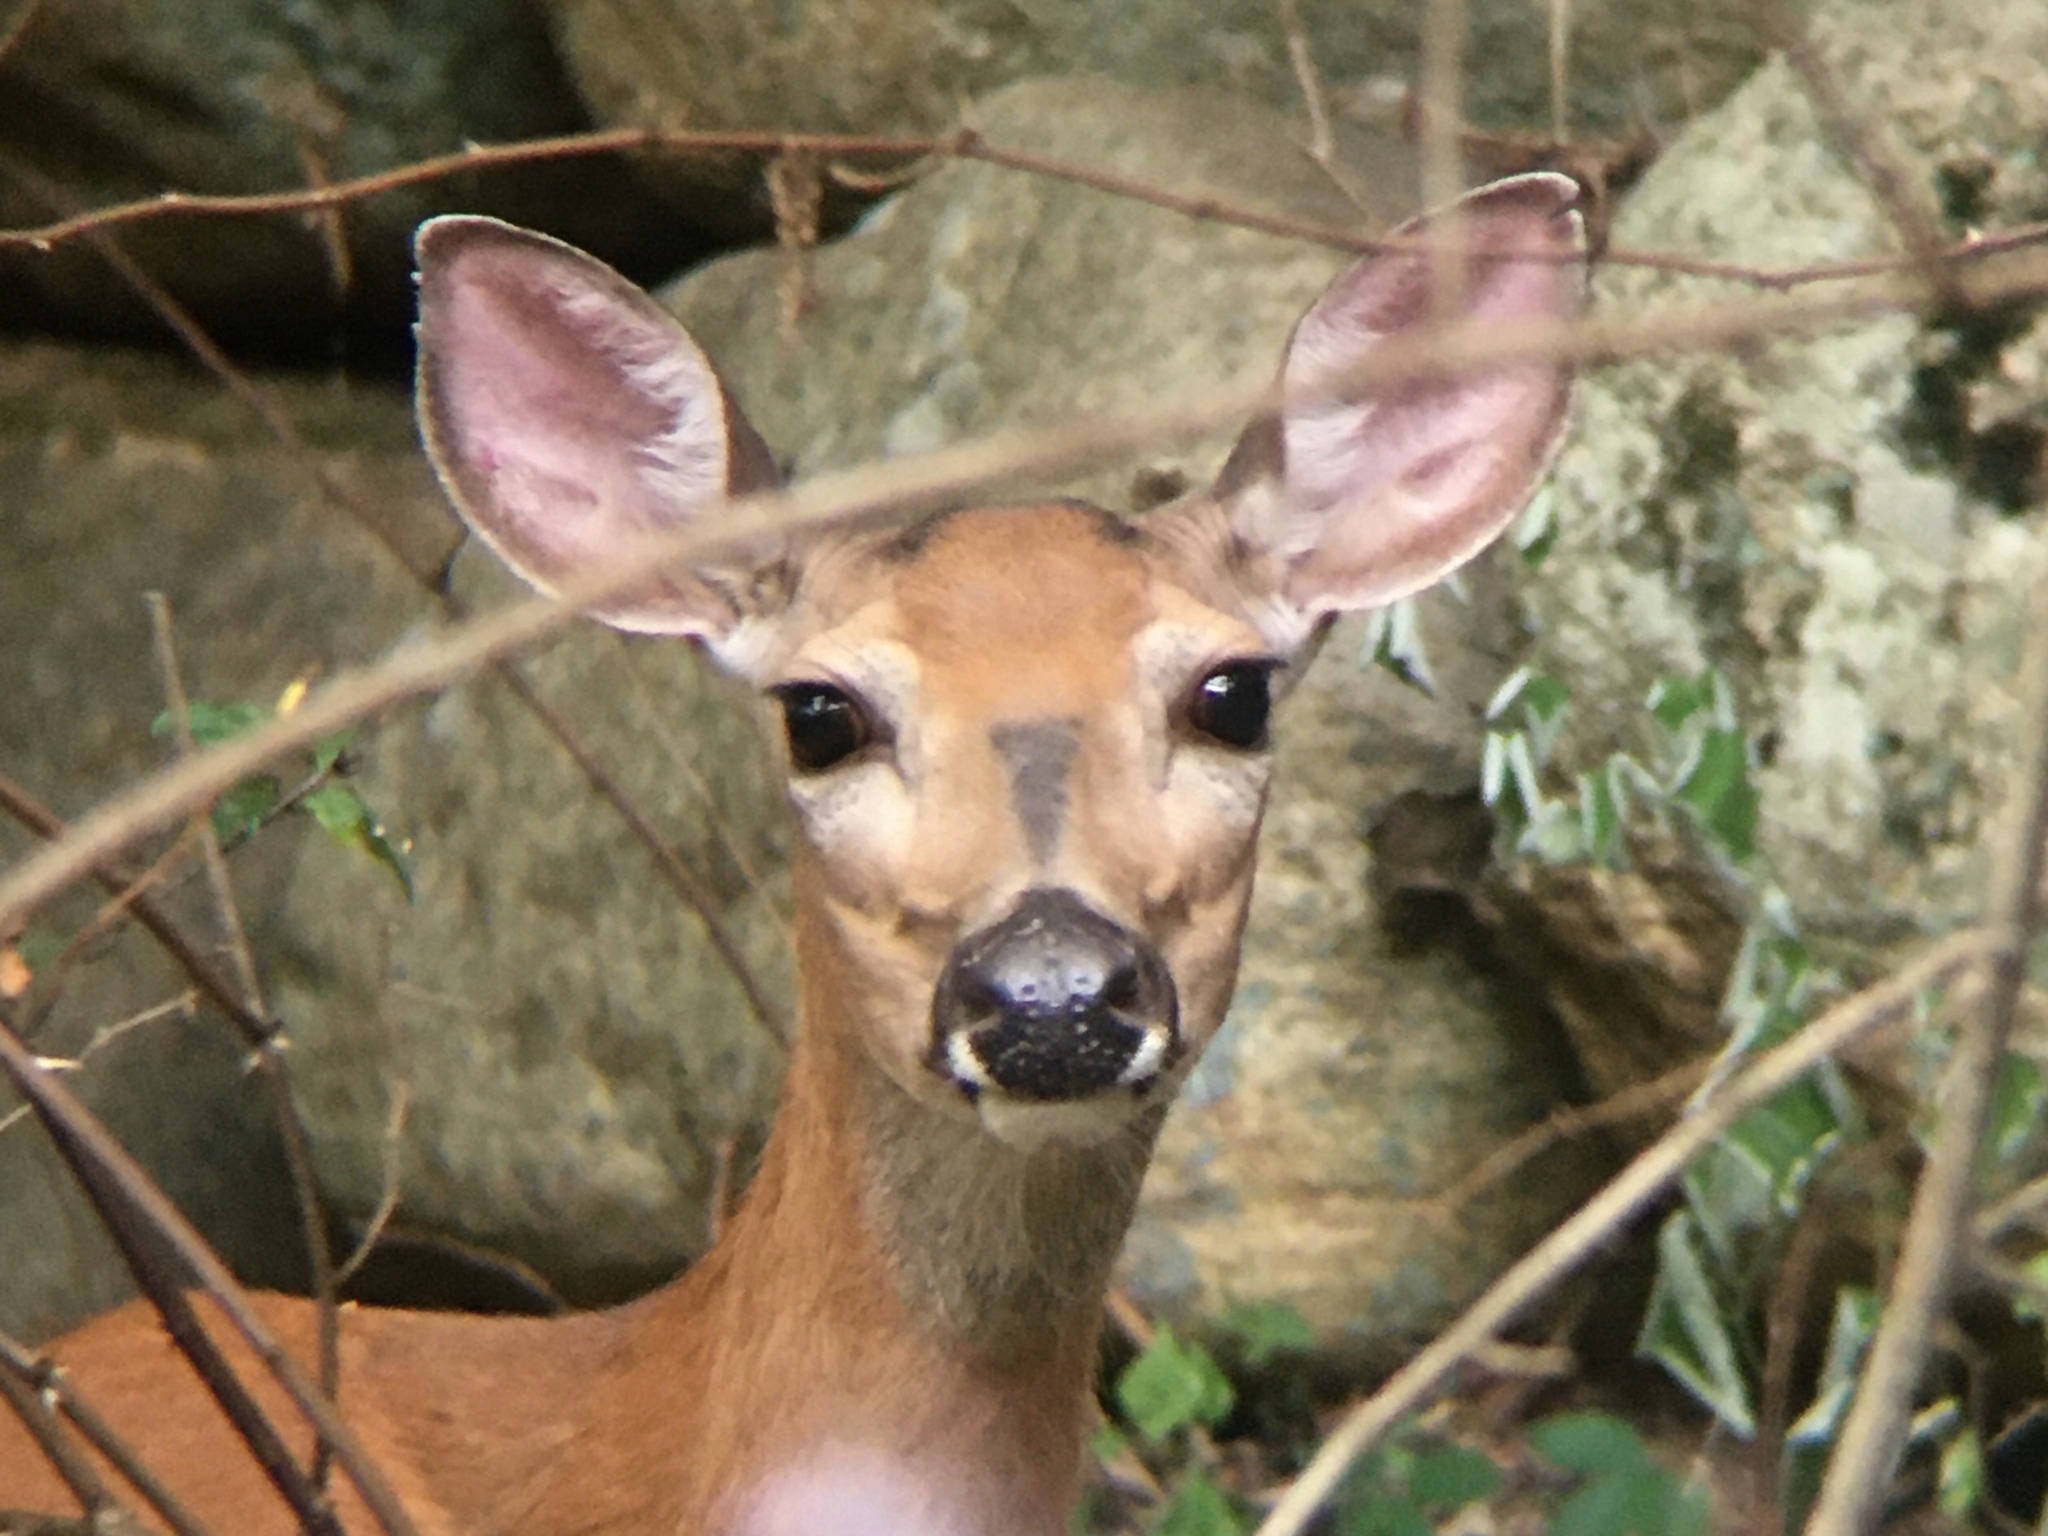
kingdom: Animalia
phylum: Chordata
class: Mammalia
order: Artiodactyla
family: Cervidae
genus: Odocoileus
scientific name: Odocoileus virginianus
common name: White-tailed deer
